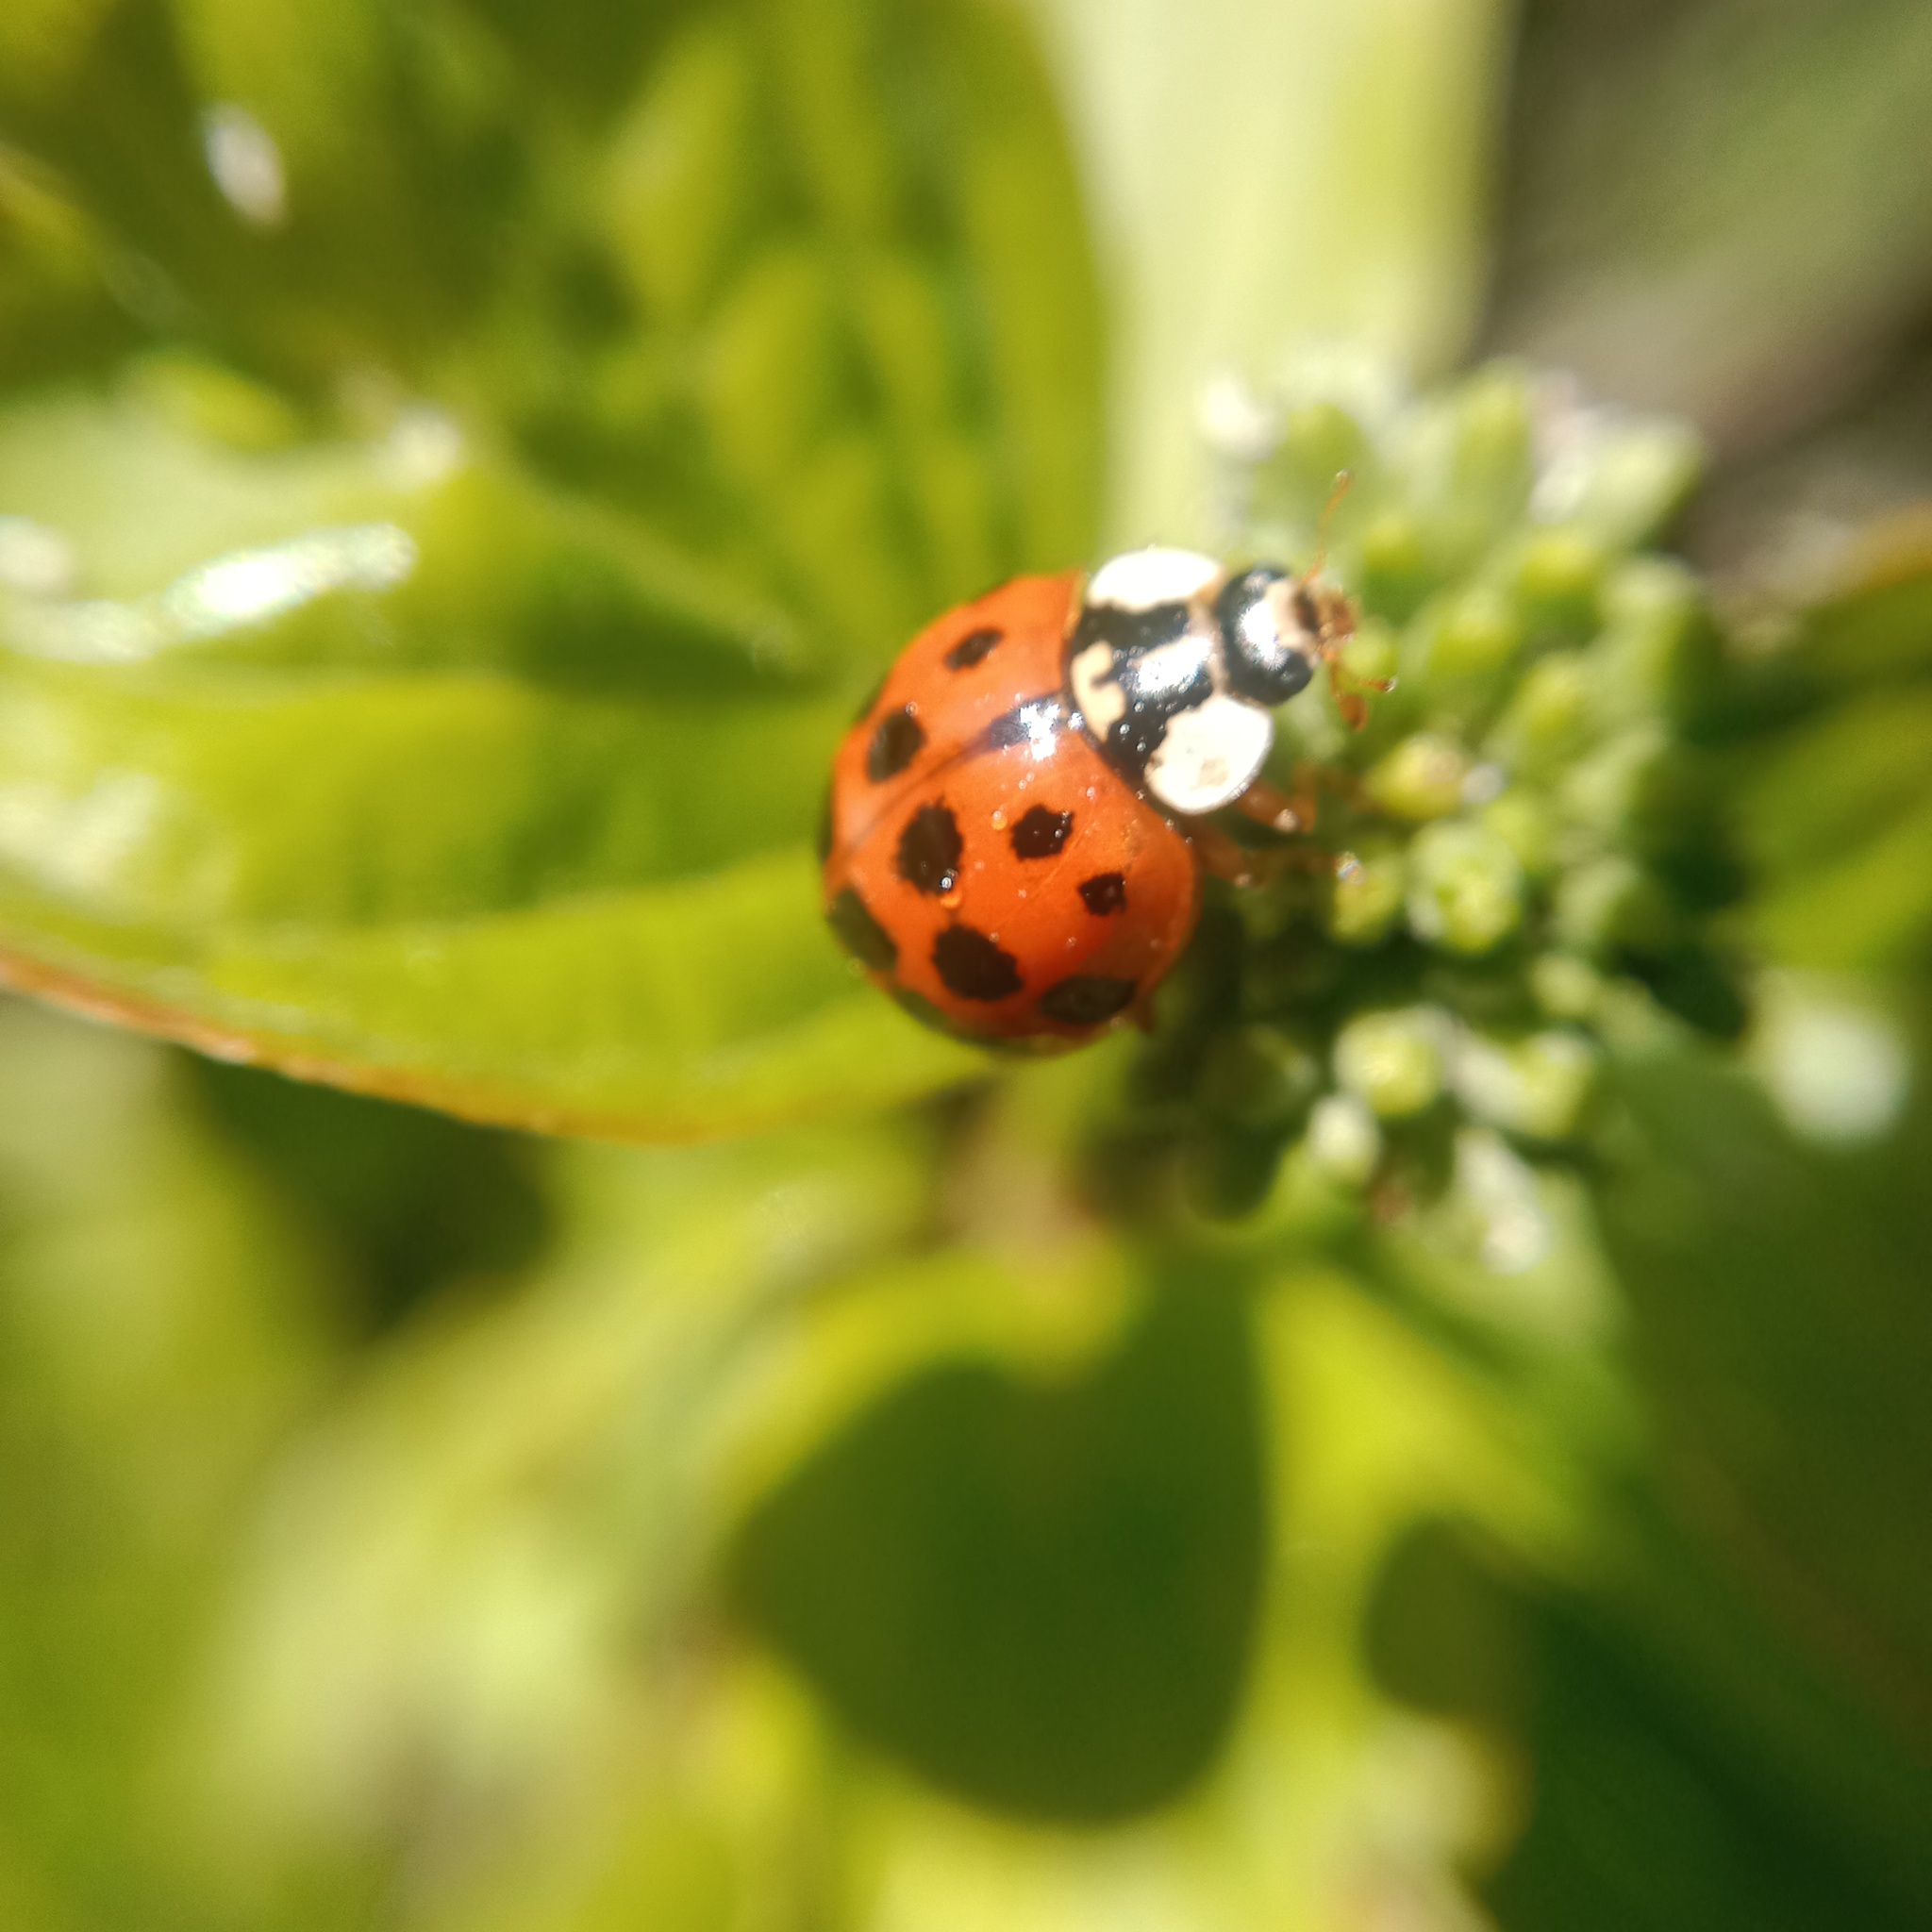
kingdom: Animalia
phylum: Arthropoda
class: Insecta
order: Coleoptera
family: Coccinellidae
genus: Harmonia
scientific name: Harmonia axyridis
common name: Harlequin ladybird
